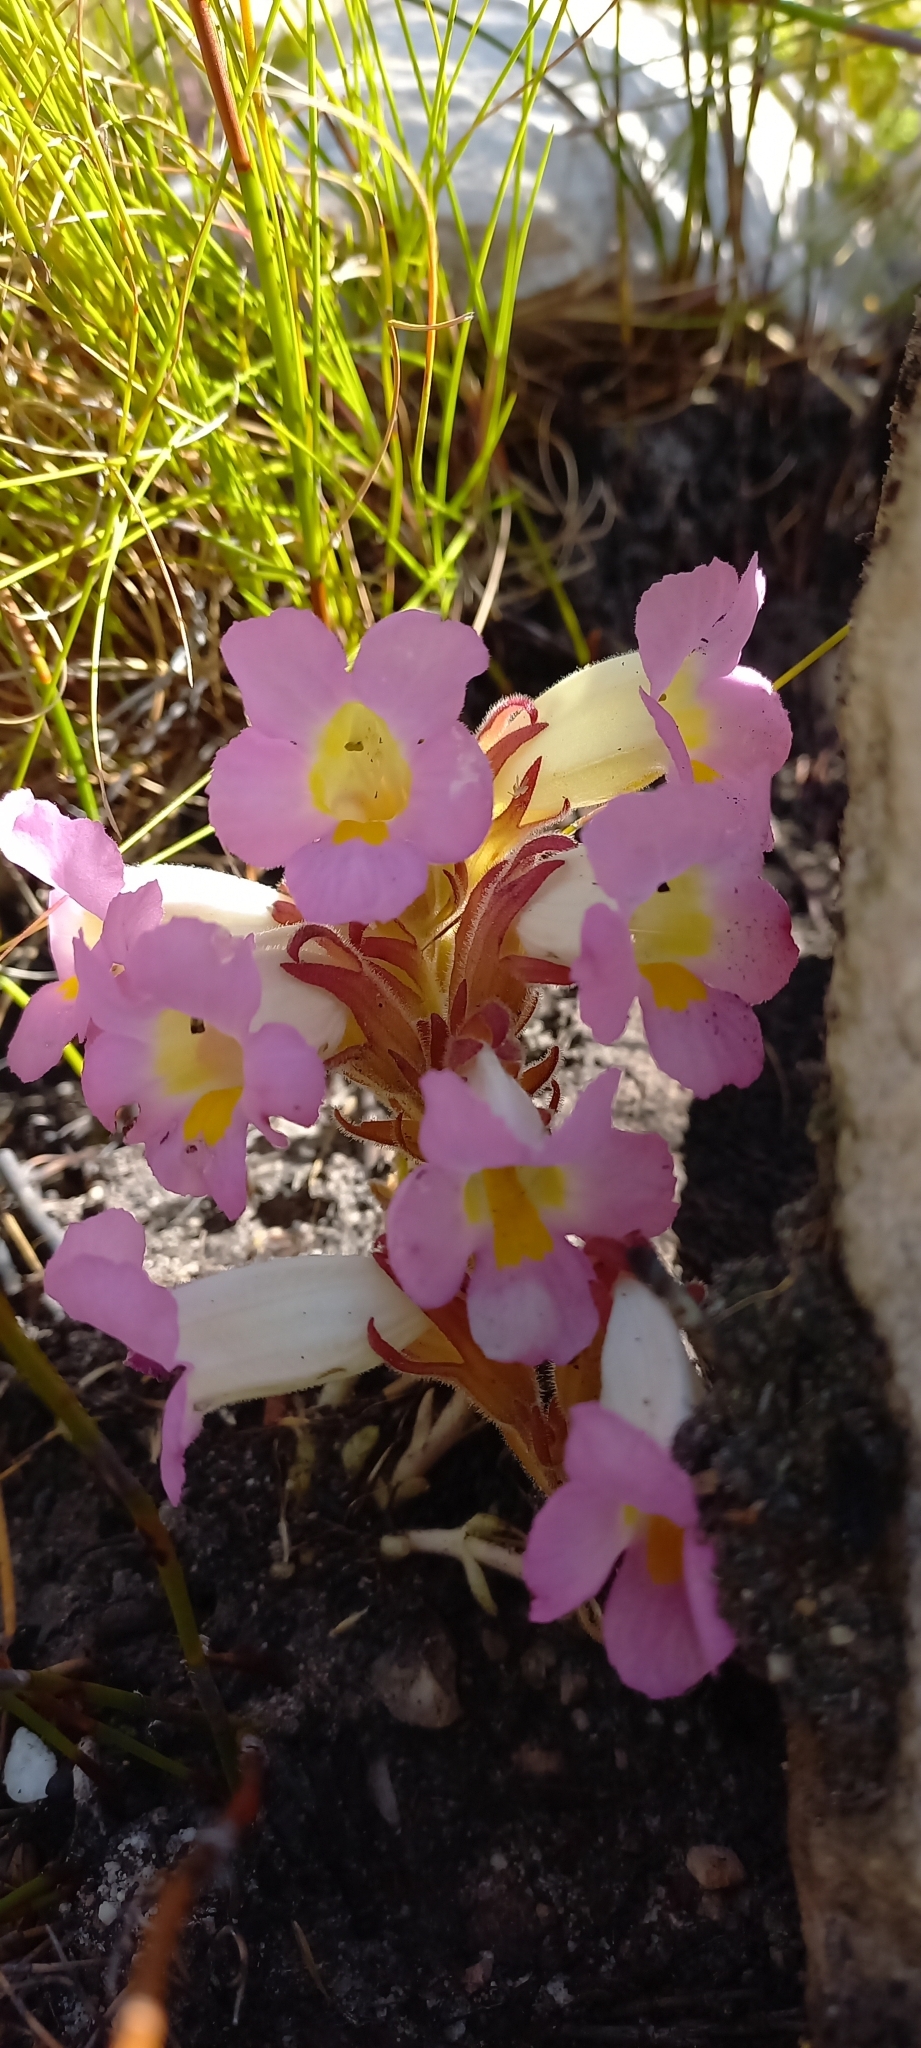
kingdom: Plantae
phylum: Tracheophyta
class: Magnoliopsida
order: Lamiales
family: Orobanchaceae
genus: Harveya
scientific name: Harveya purpurea
